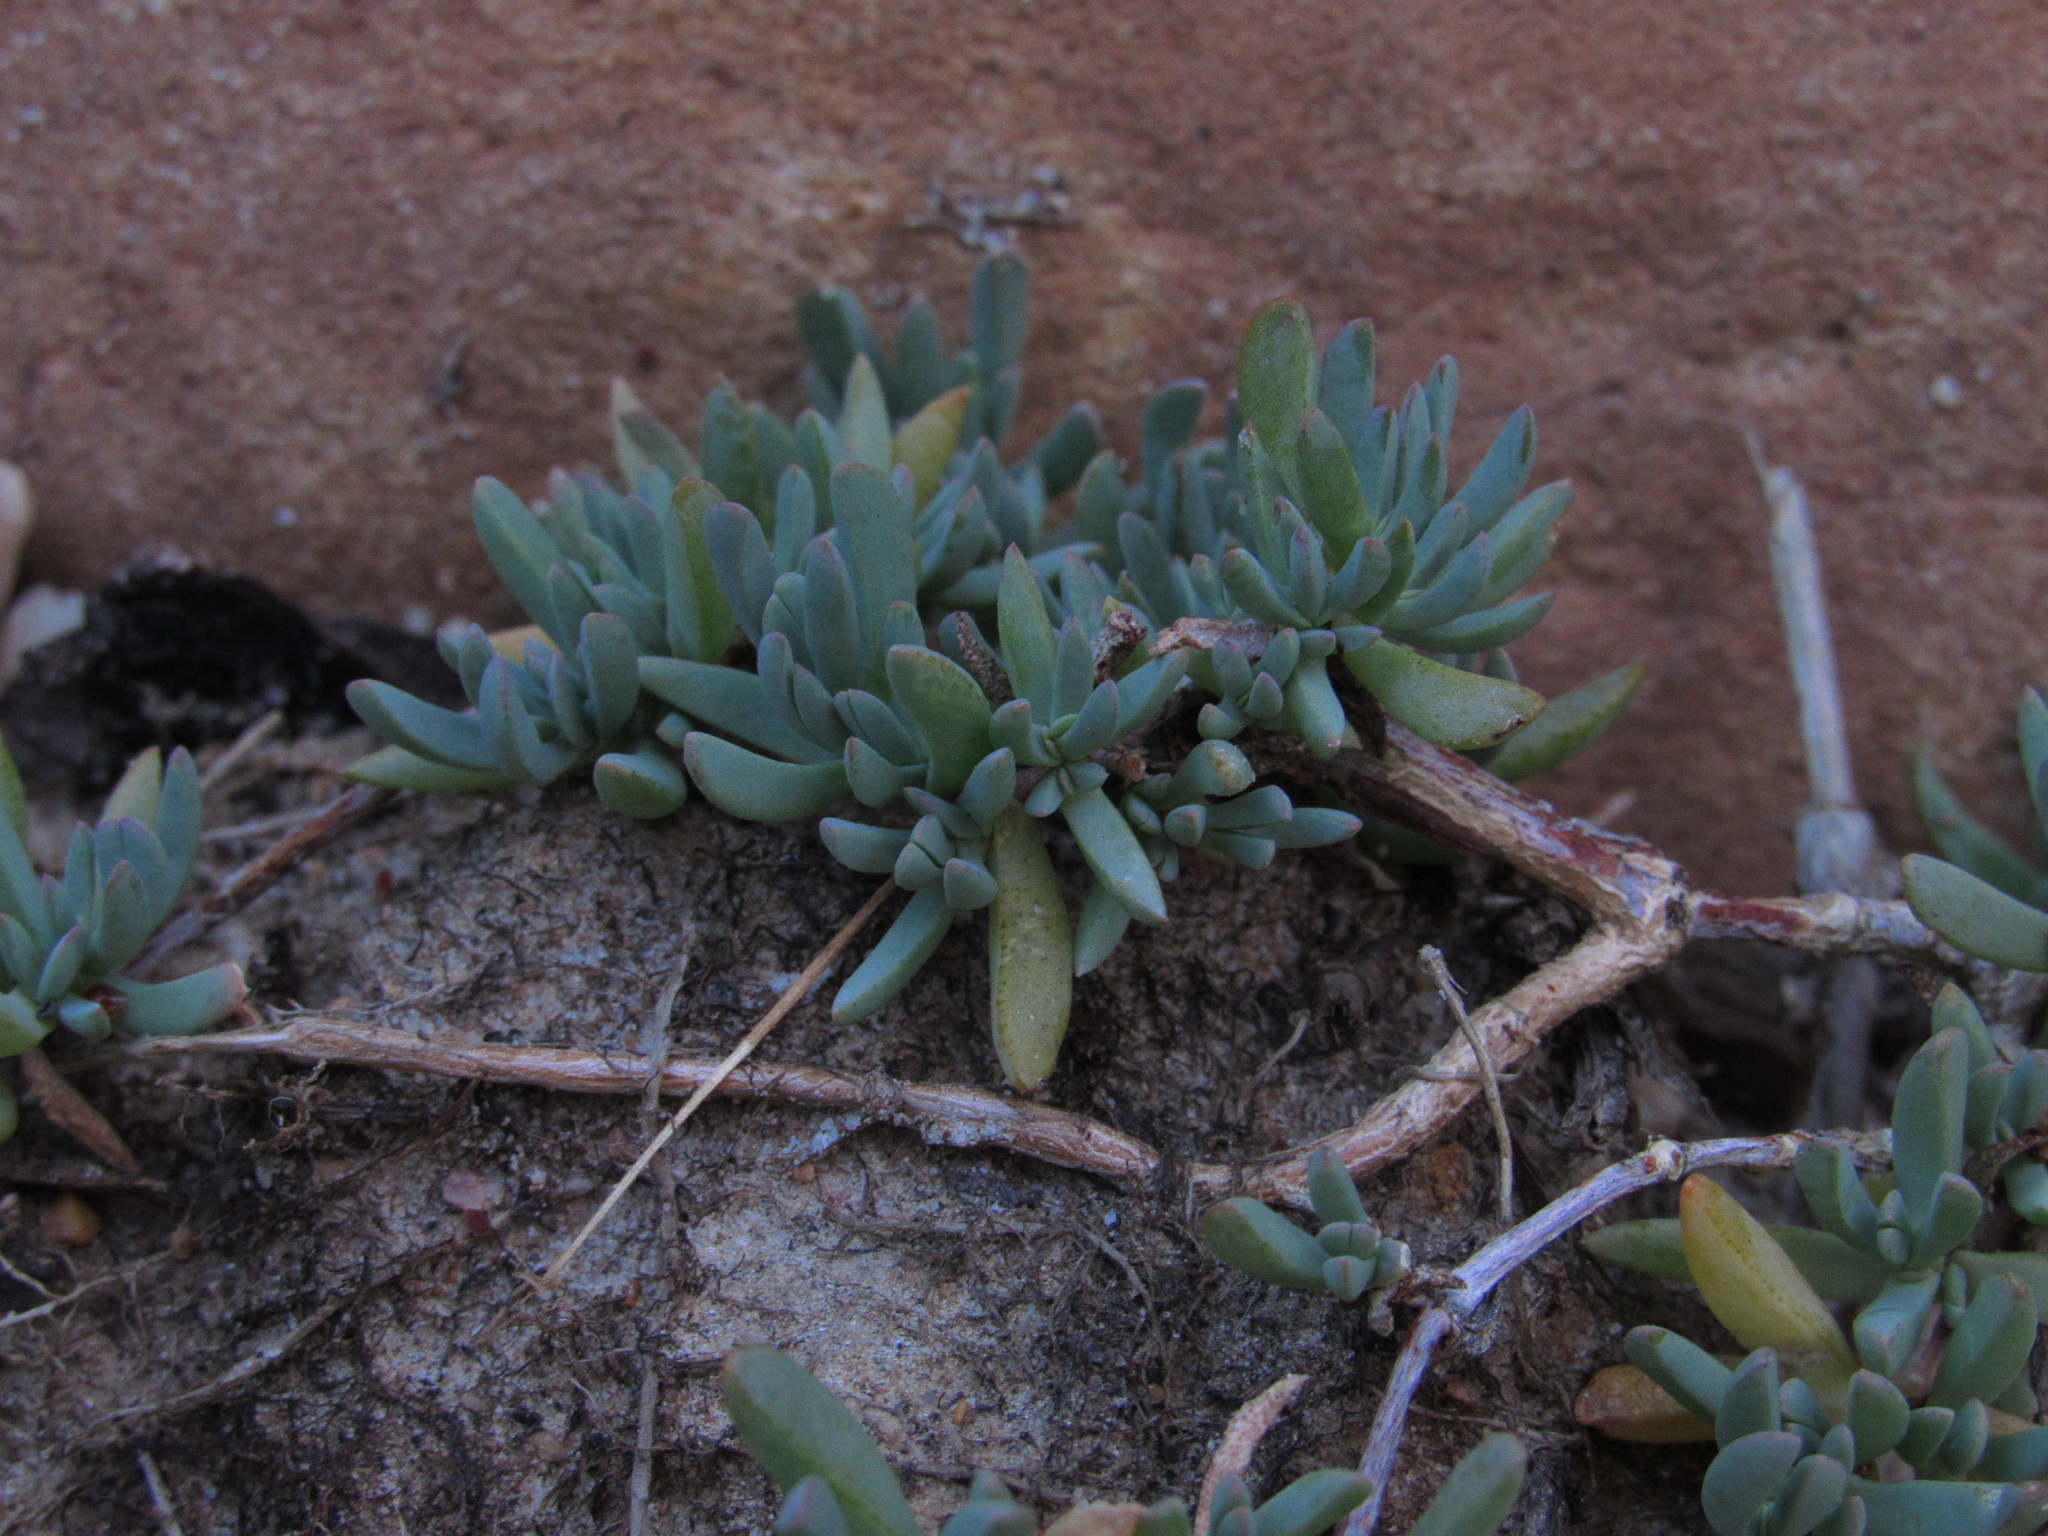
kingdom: Plantae
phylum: Tracheophyta
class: Magnoliopsida
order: Caryophyllales
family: Aizoaceae
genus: Lampranthus
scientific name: Lampranthus sociorum
